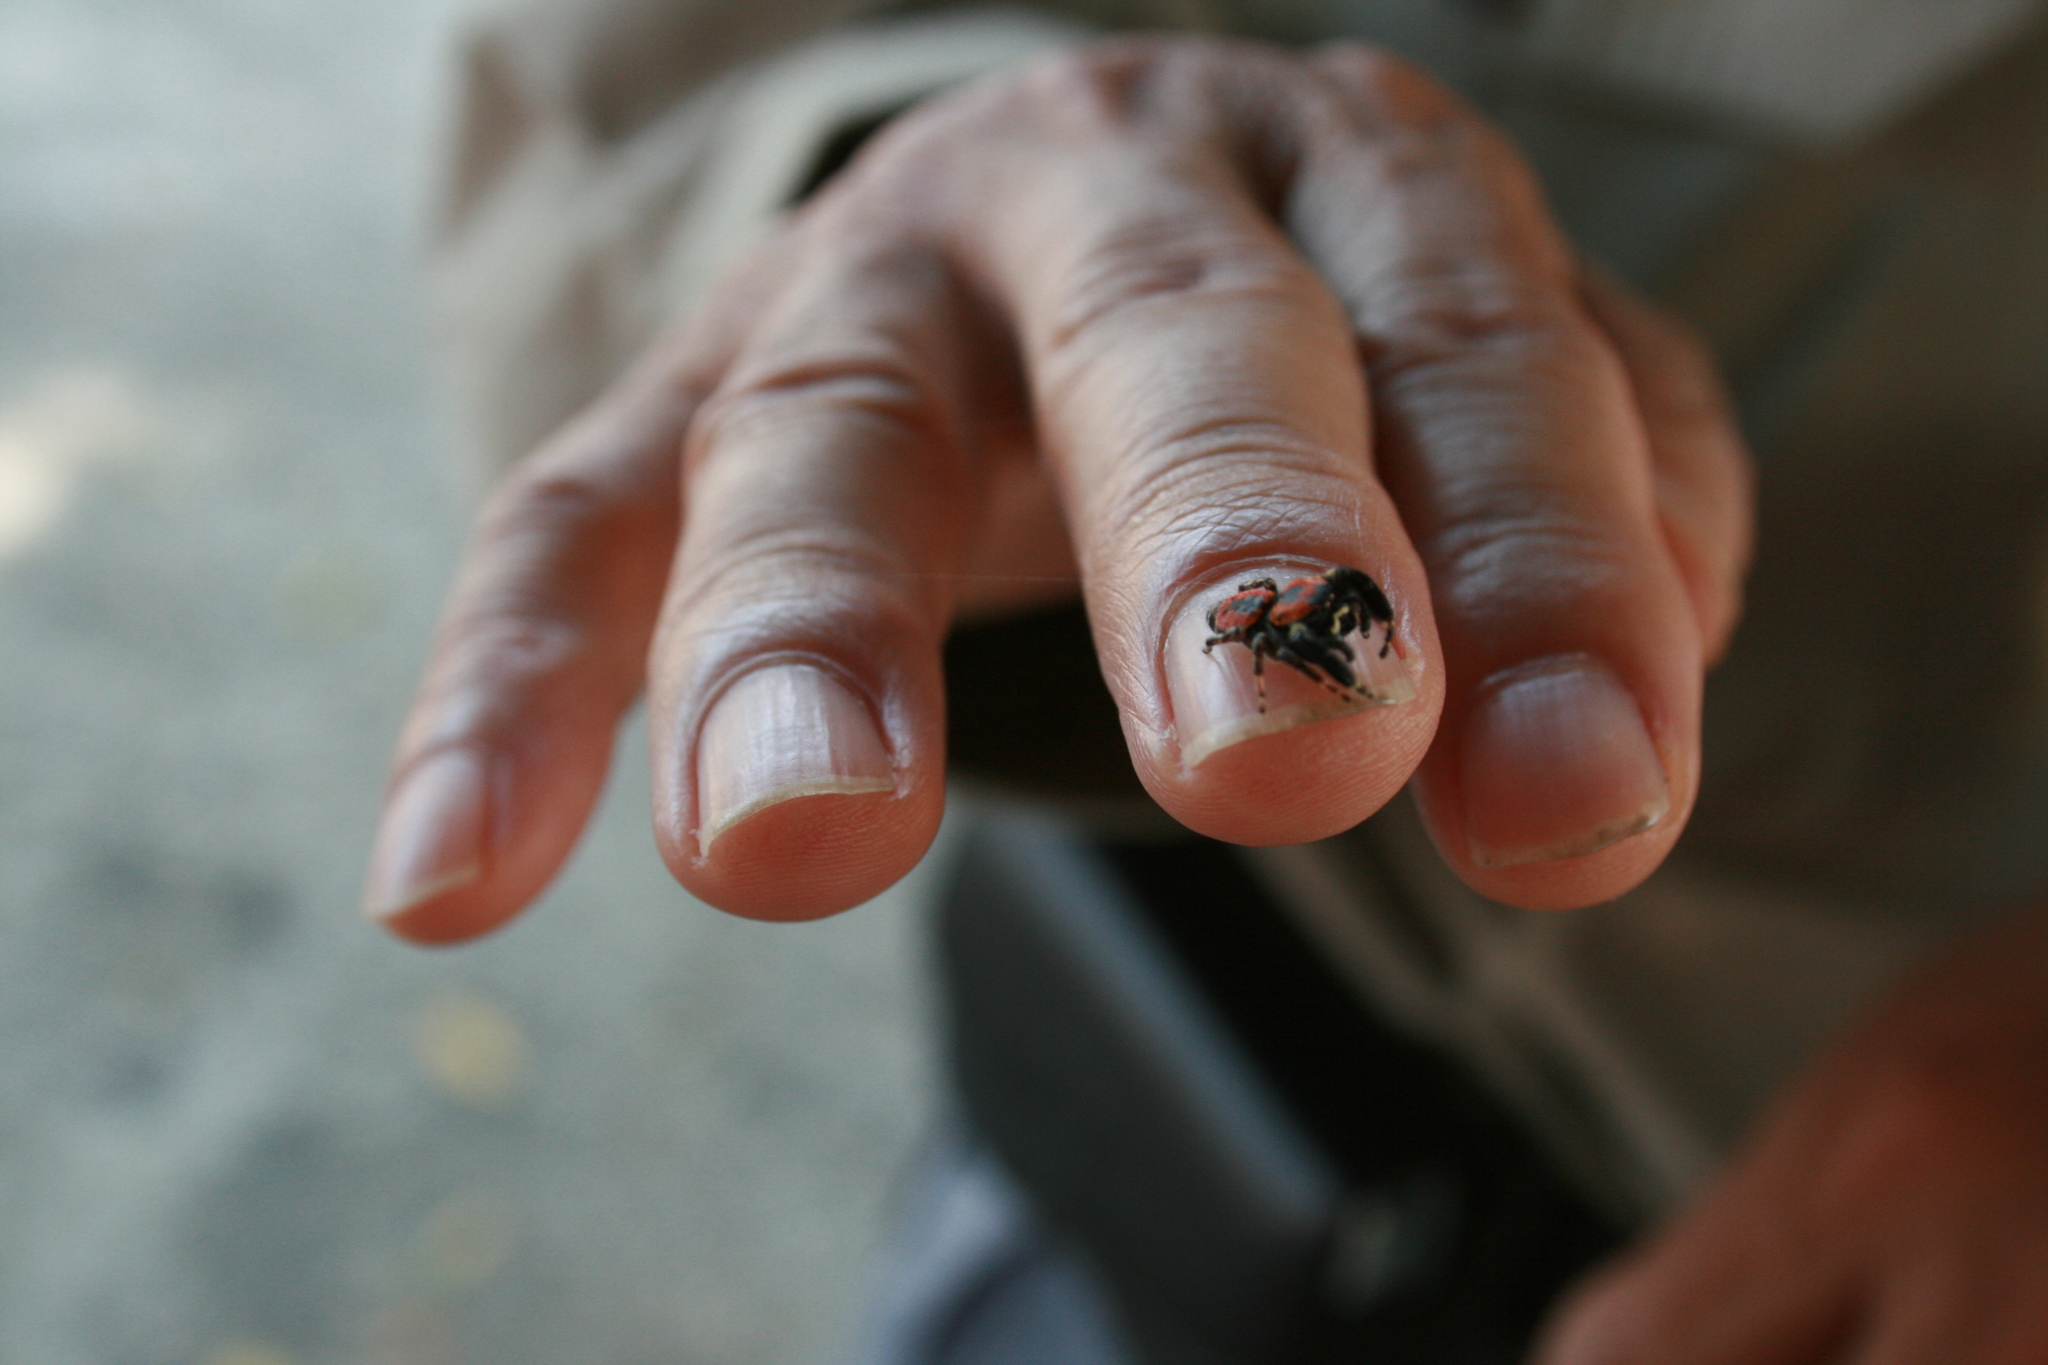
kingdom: Animalia
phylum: Arthropoda
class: Arachnida
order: Araneae
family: Salticidae
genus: Rhene
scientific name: Rhene atrata
